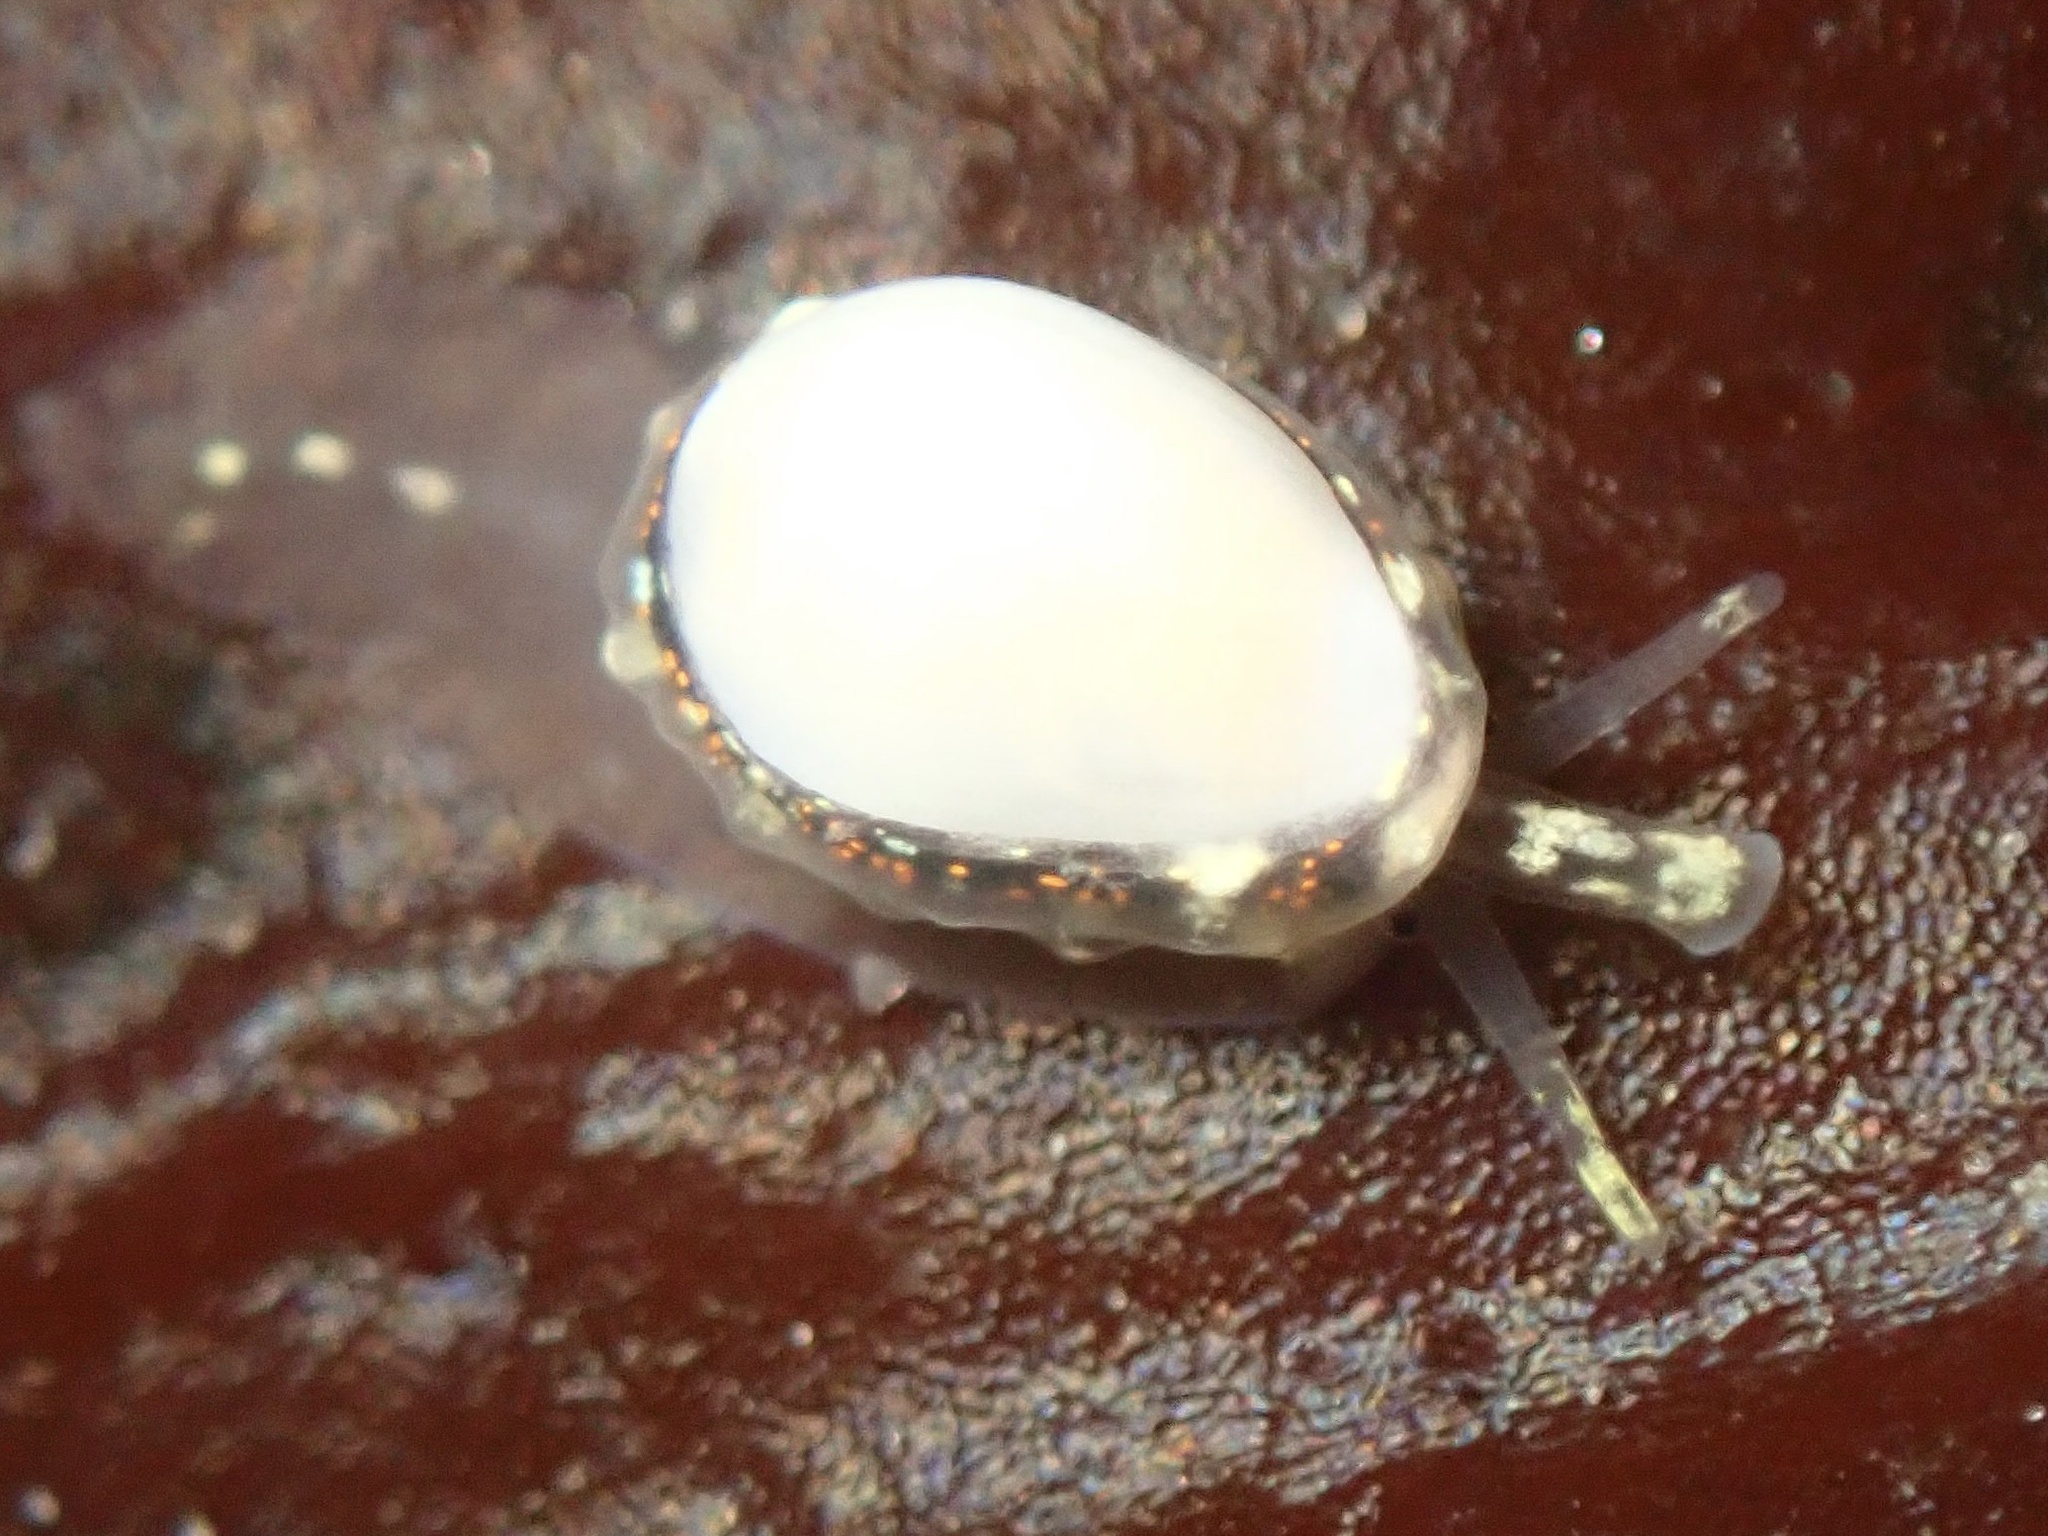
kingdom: Animalia
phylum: Mollusca
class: Gastropoda
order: Neogastropoda
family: Granulinidae
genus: Granulina
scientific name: Granulina margaritula
